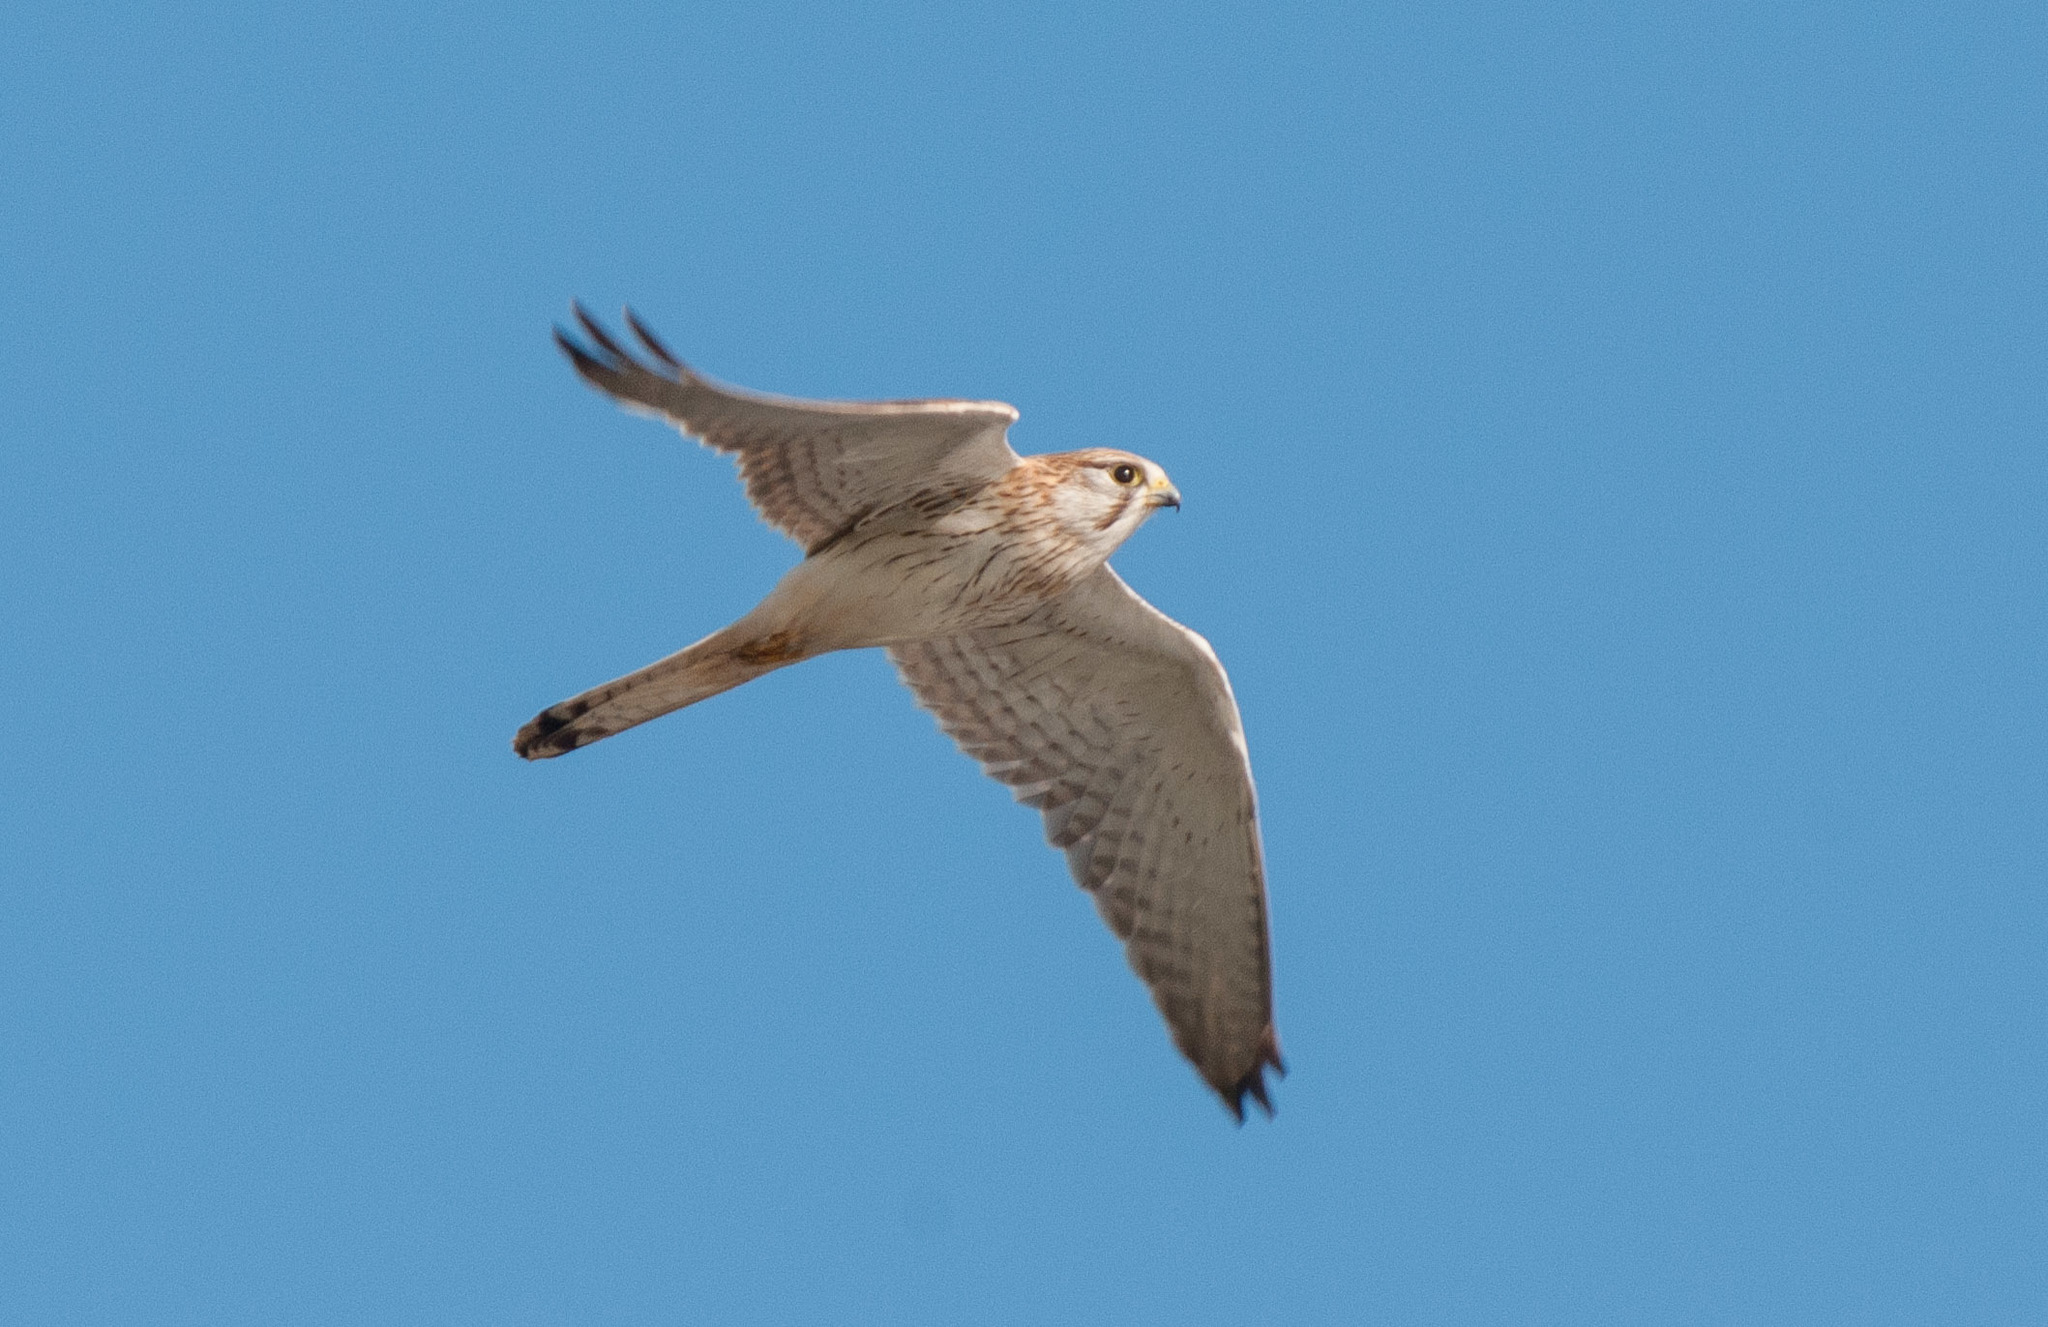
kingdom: Animalia
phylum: Chordata
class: Aves
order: Falconiformes
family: Falconidae
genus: Falco
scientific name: Falco cenchroides
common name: Nankeen kestrel
